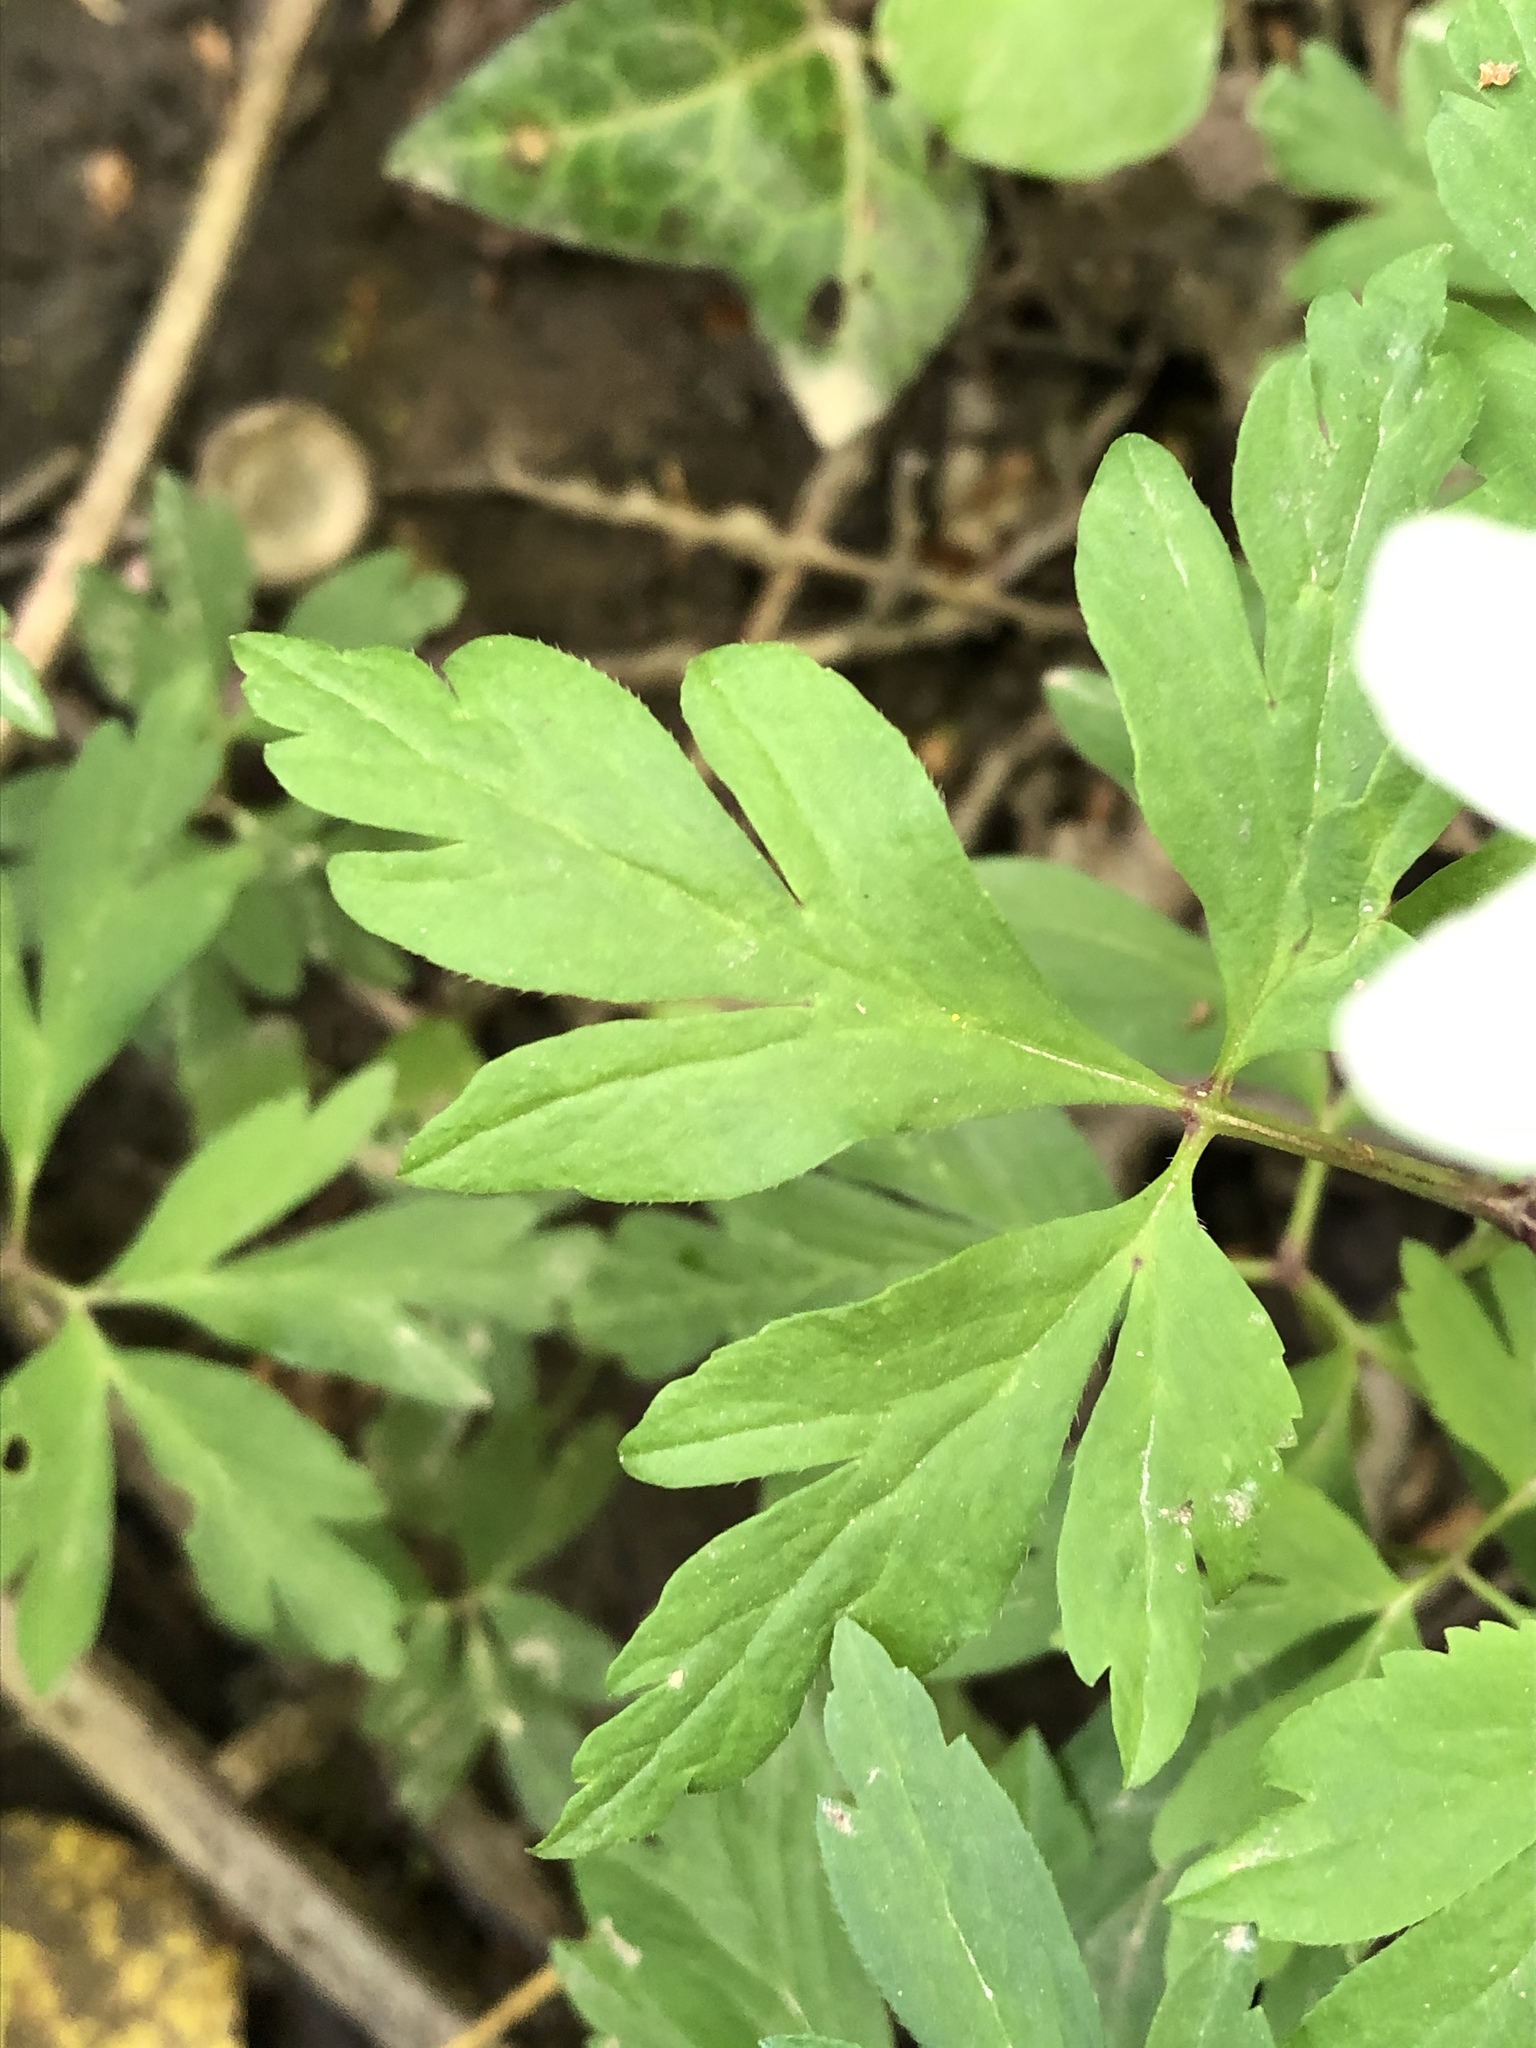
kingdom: Plantae
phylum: Tracheophyta
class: Magnoliopsida
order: Ranunculales
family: Ranunculaceae
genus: Anemone
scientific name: Anemone nemorosa
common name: Wood anemone
